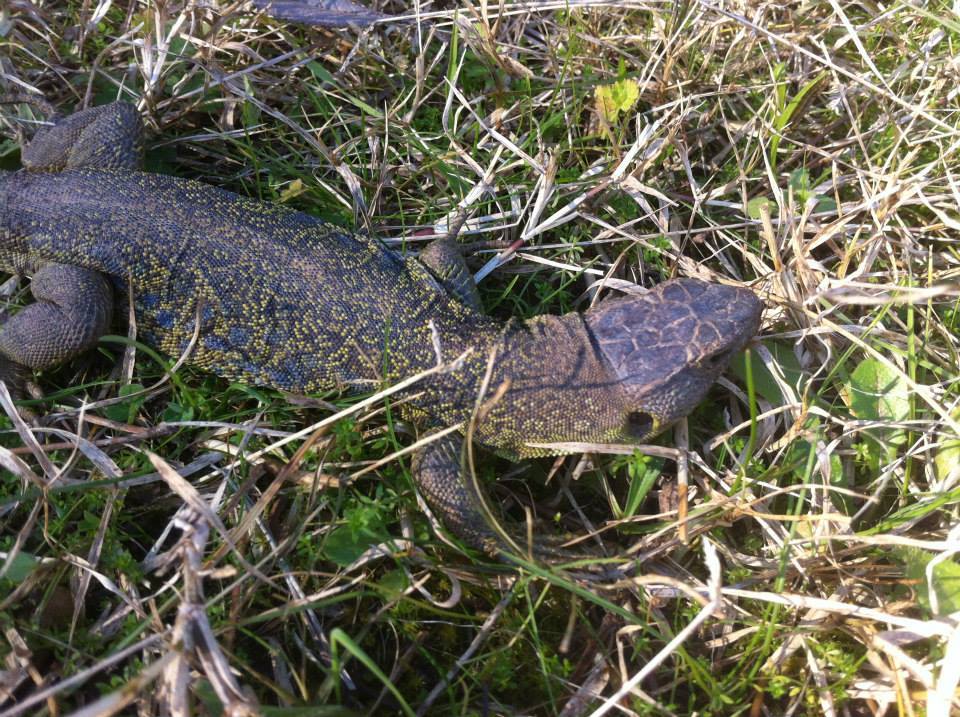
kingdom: Animalia
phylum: Chordata
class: Squamata
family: Lacertidae
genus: Timon
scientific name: Timon lepidus
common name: Ocellated lizard
